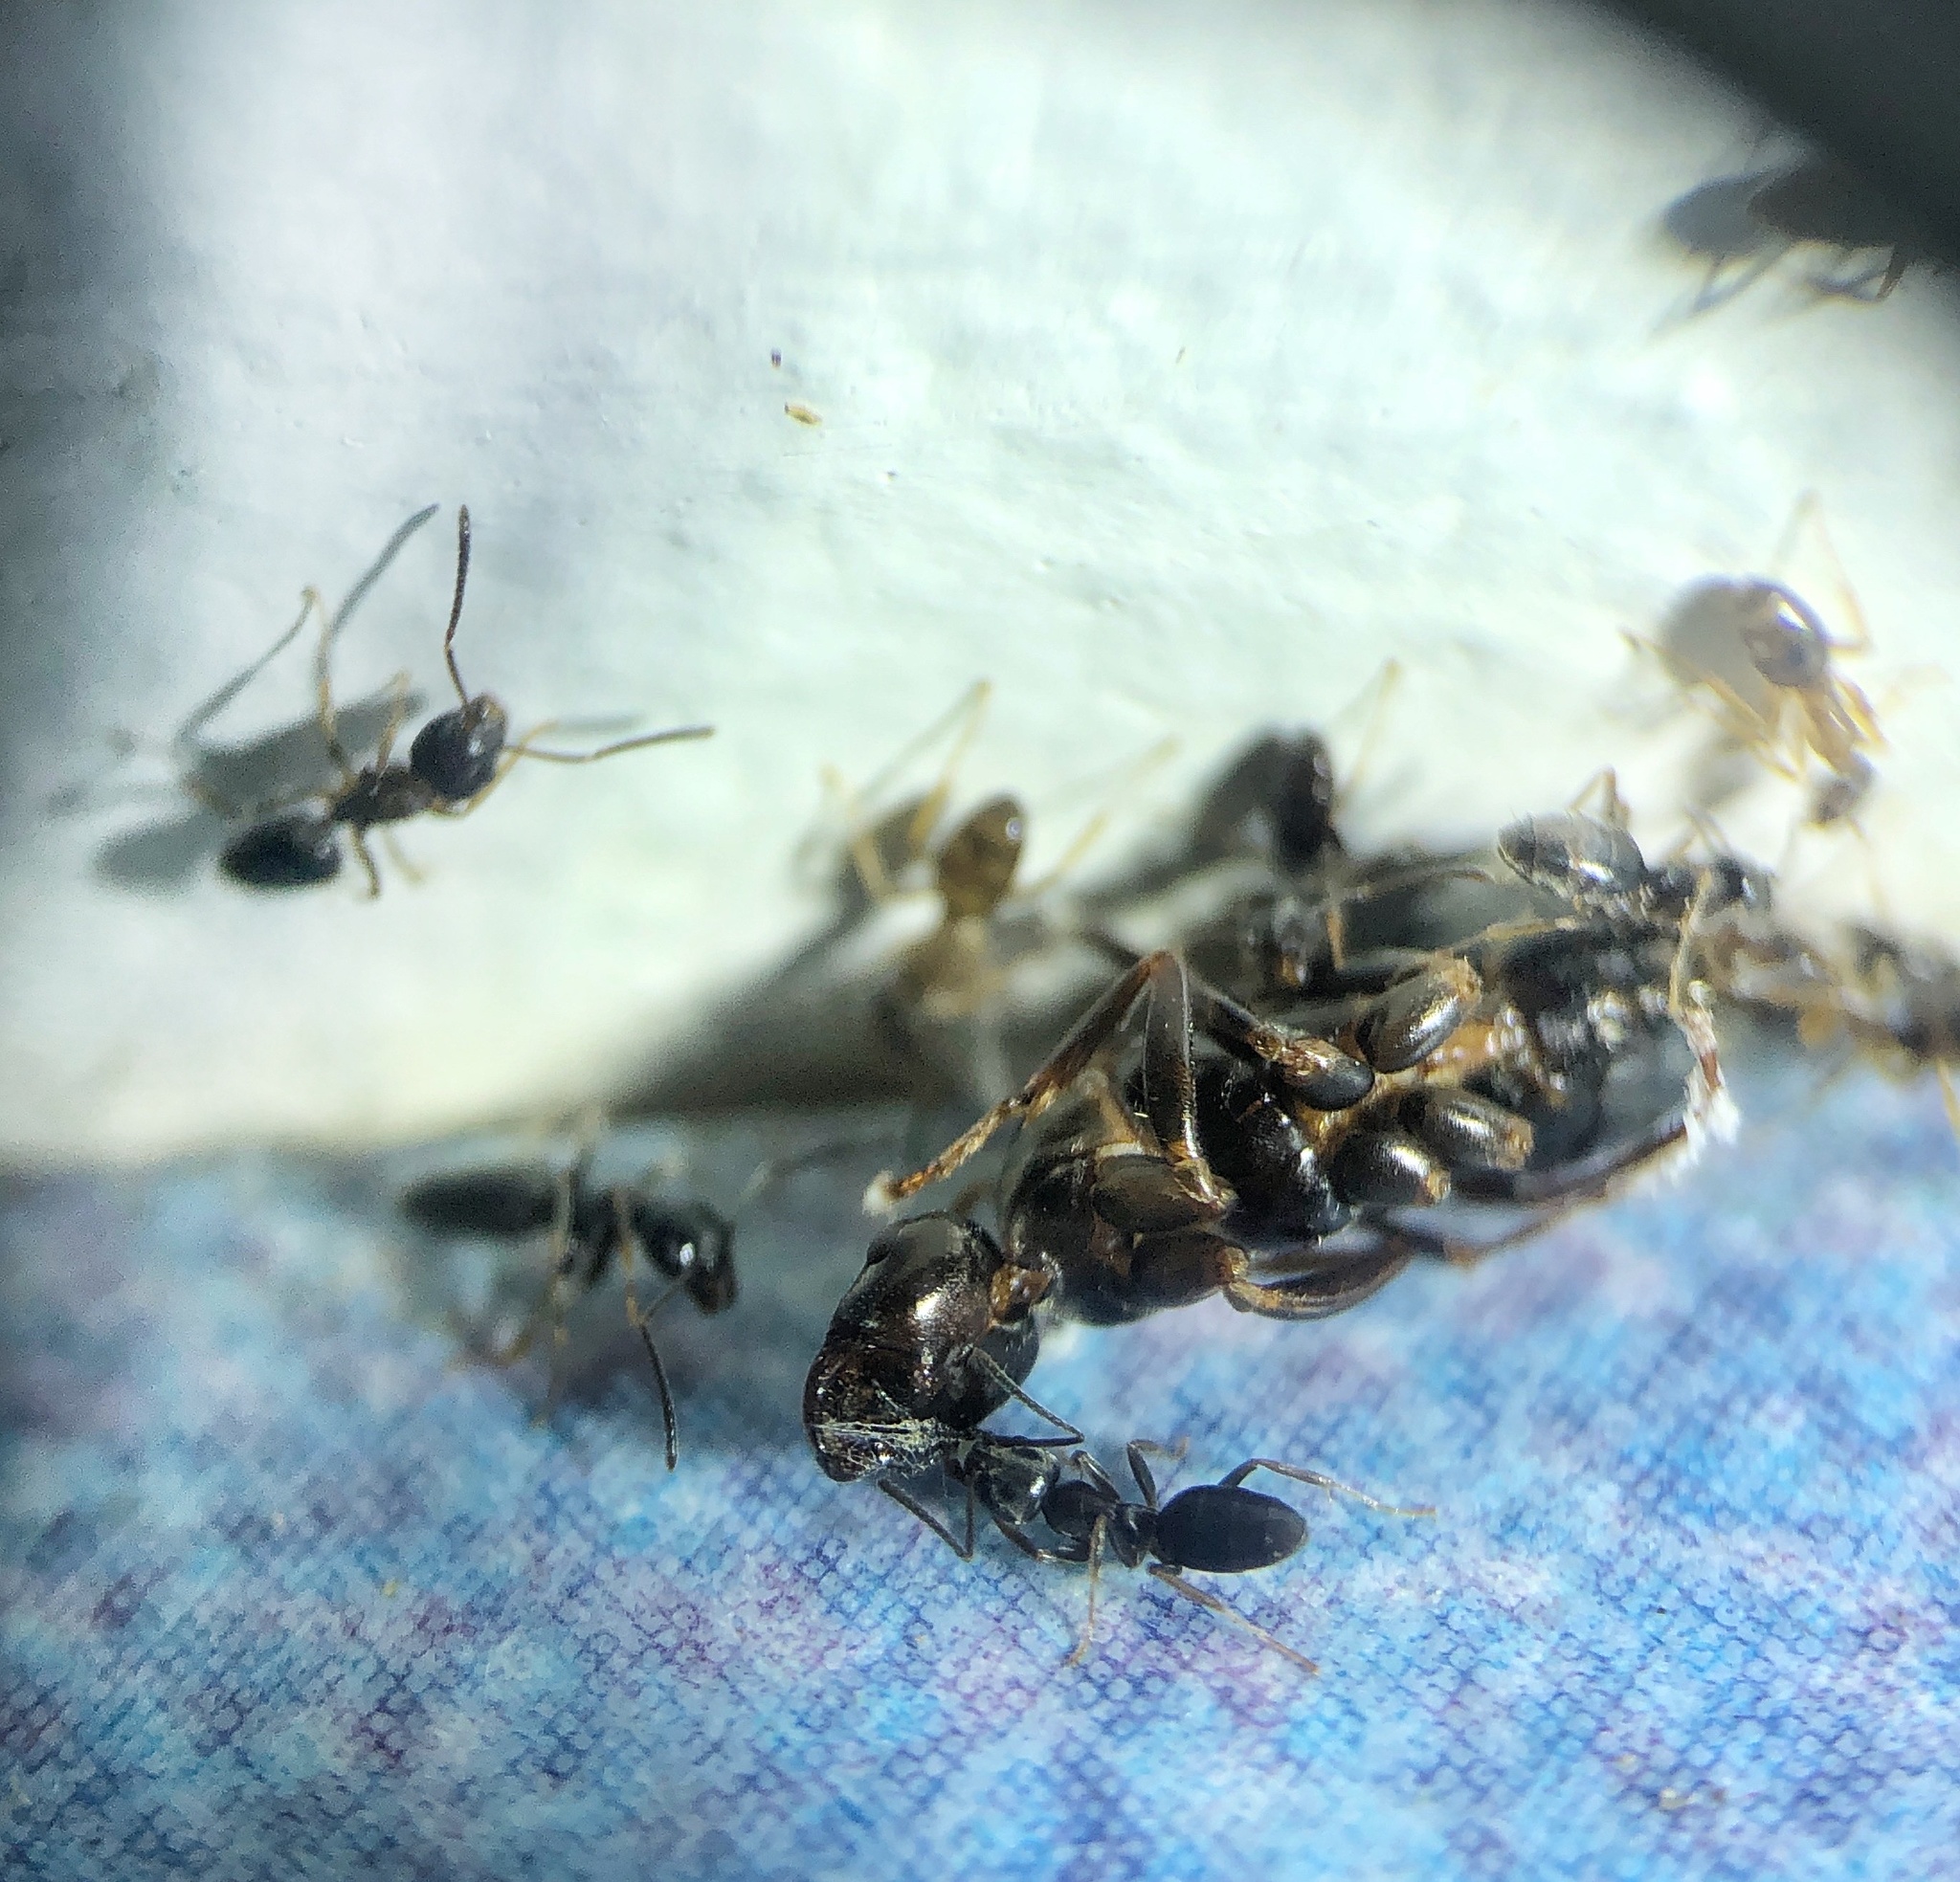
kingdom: Animalia
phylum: Arthropoda
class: Insecta
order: Hymenoptera
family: Formicidae
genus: Tapinoma
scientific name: Tapinoma sessile
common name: Odorous house ant
